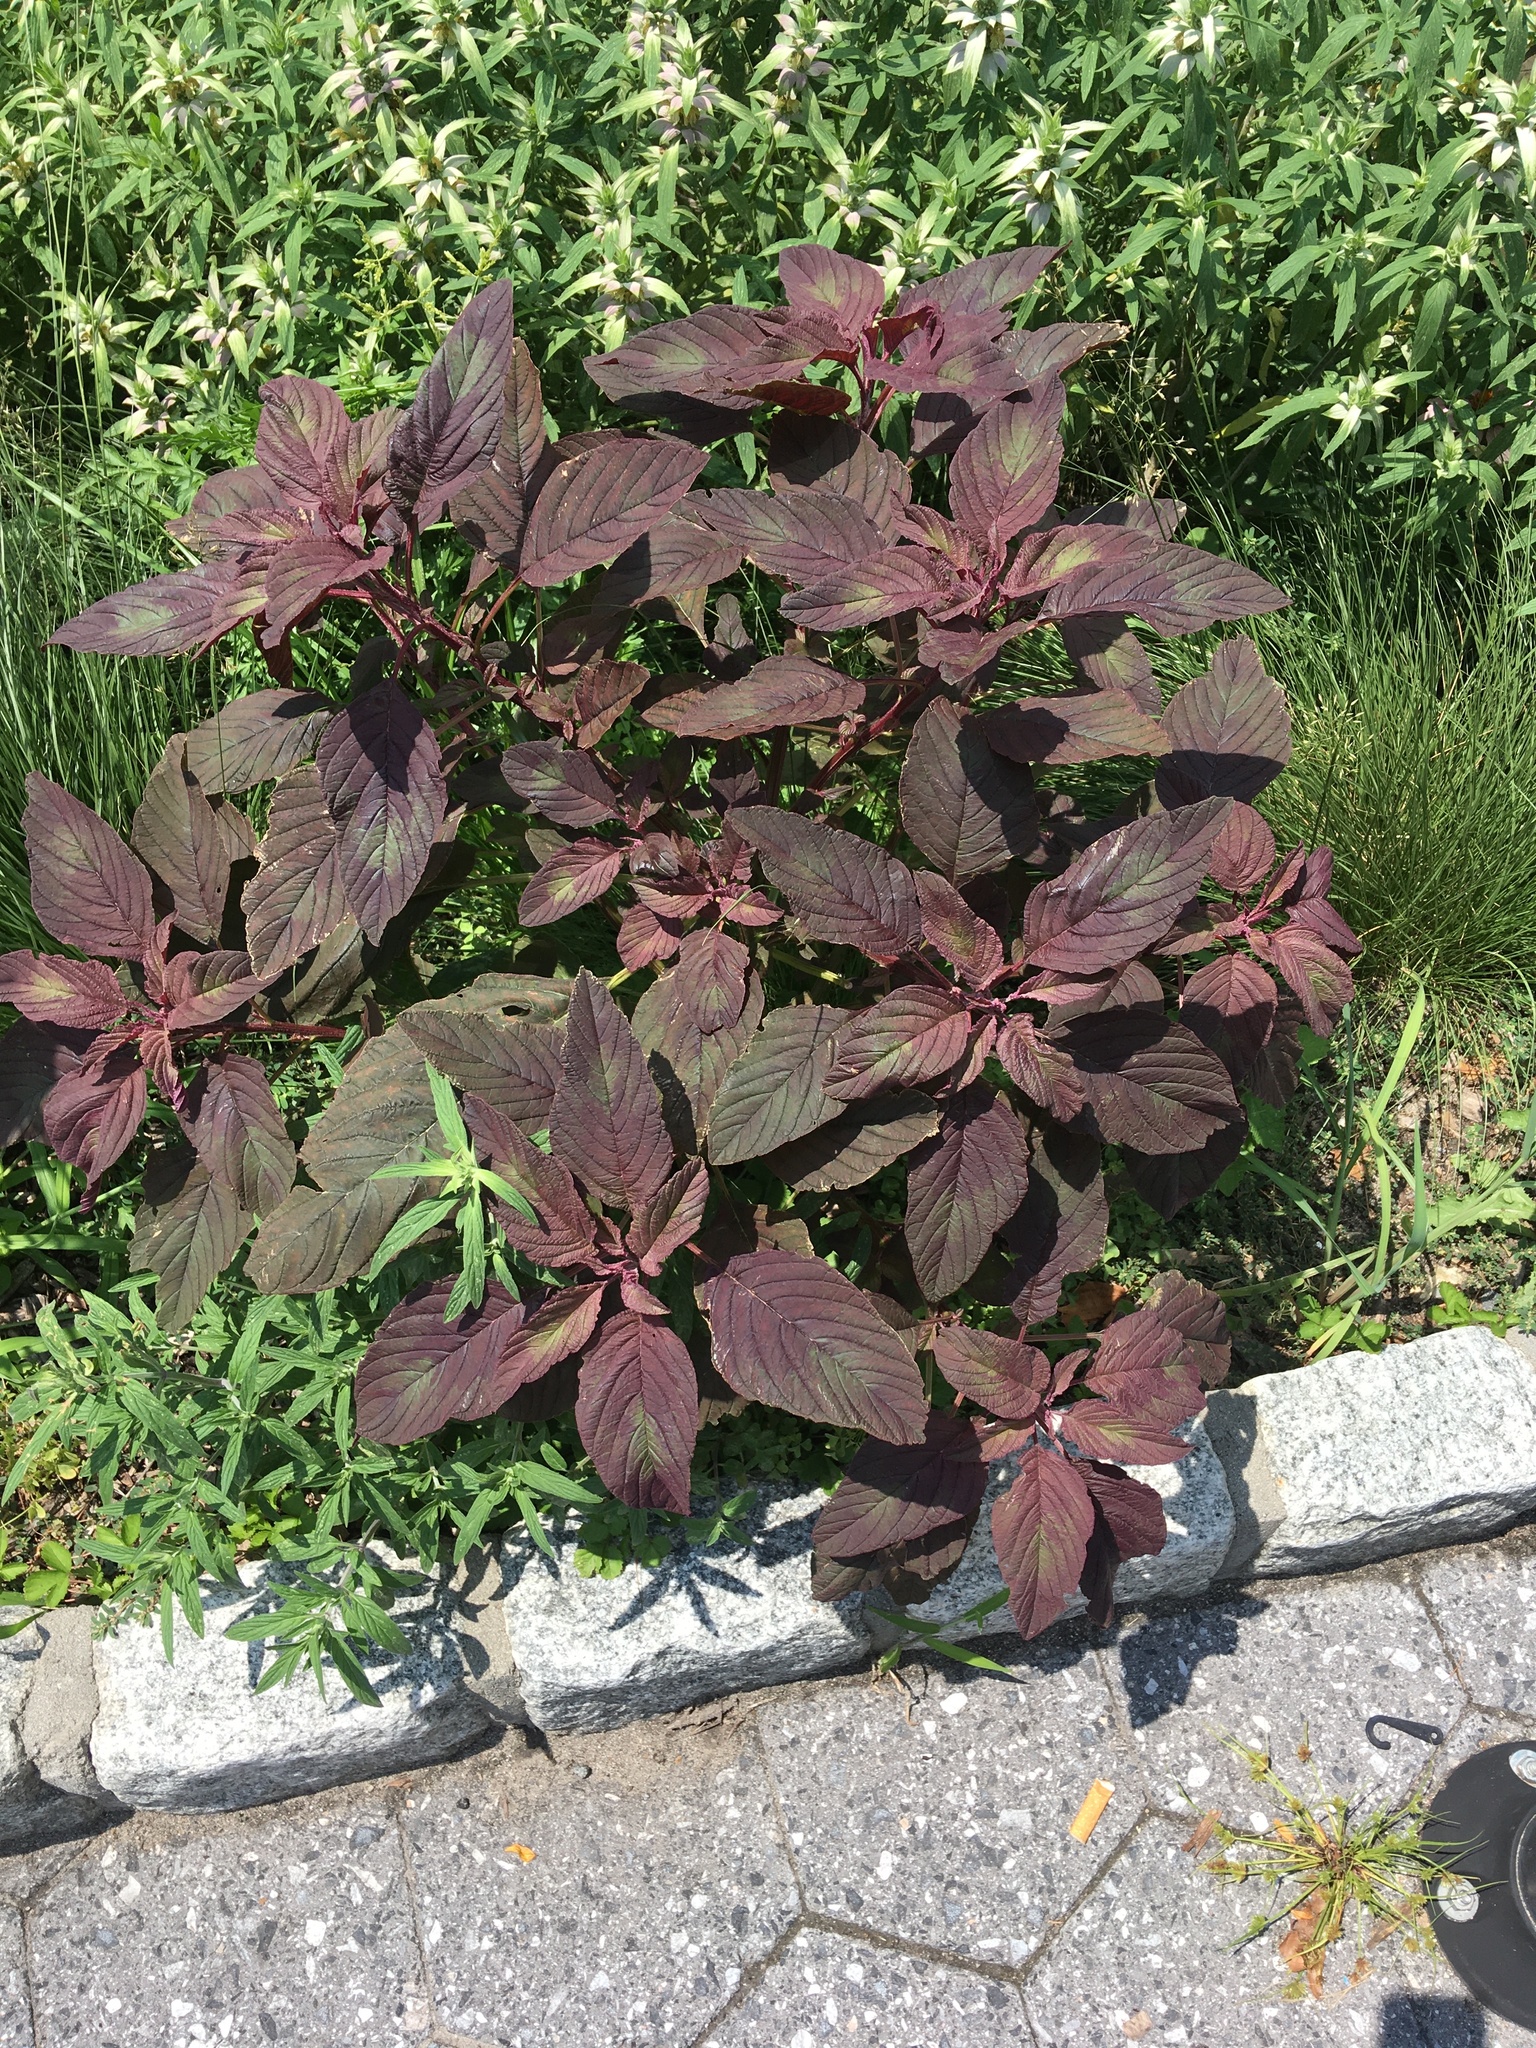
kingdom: Plantae
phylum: Tracheophyta
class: Magnoliopsida
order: Caryophyllales
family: Amaranthaceae
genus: Amaranthus
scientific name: Amaranthus cruentus
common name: Purple amaranth
